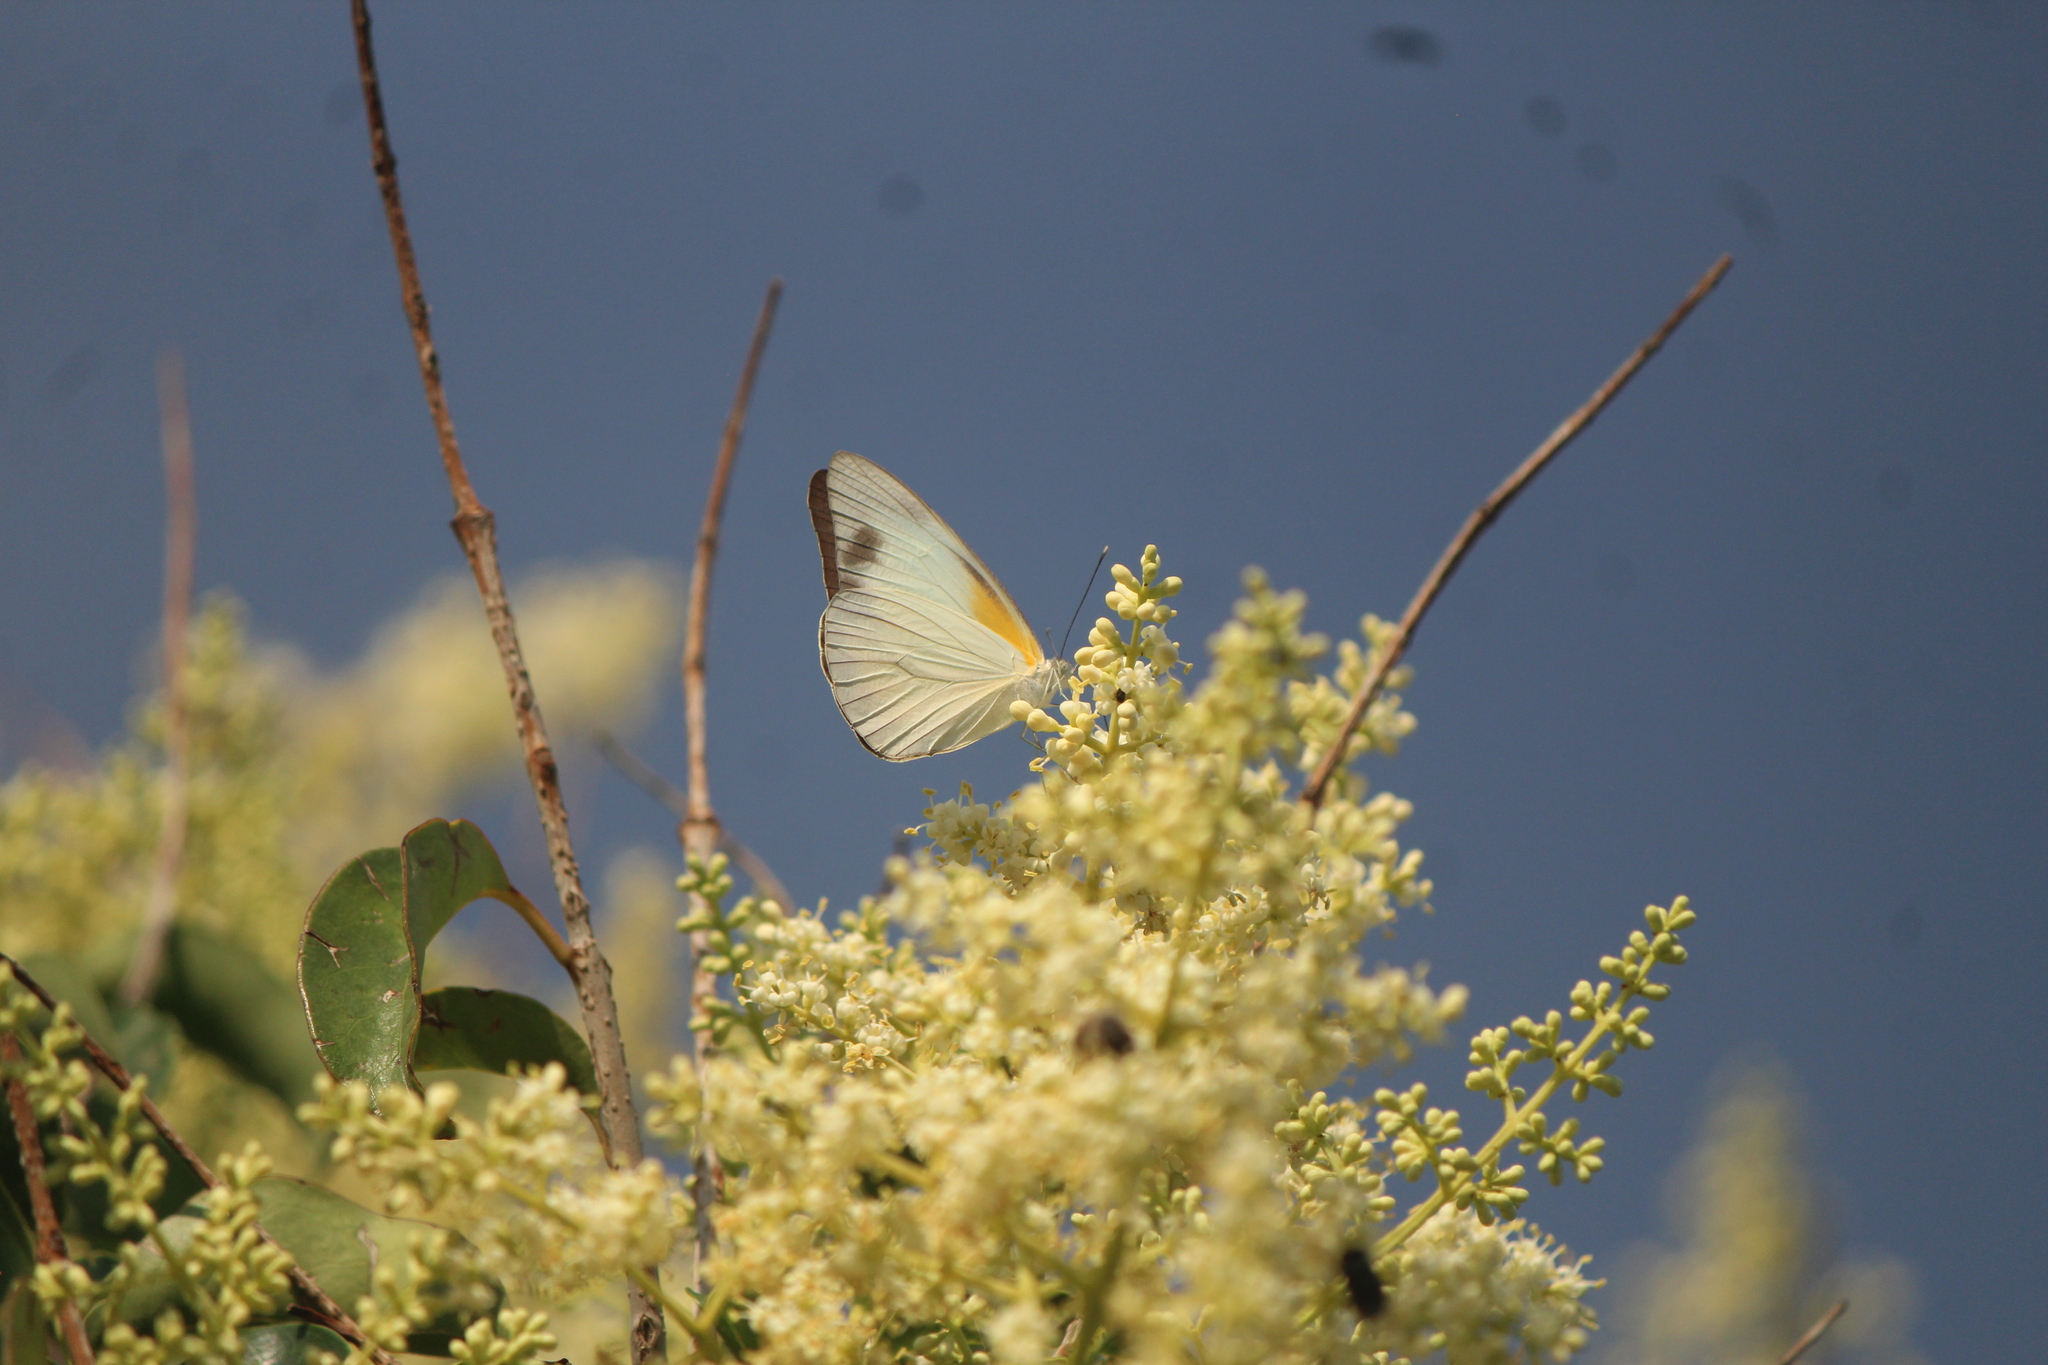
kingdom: Animalia
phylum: Arthropoda
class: Insecta
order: Lepidoptera
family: Pieridae
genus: Glutophrissa
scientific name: Glutophrissa drusilla
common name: Florida white
